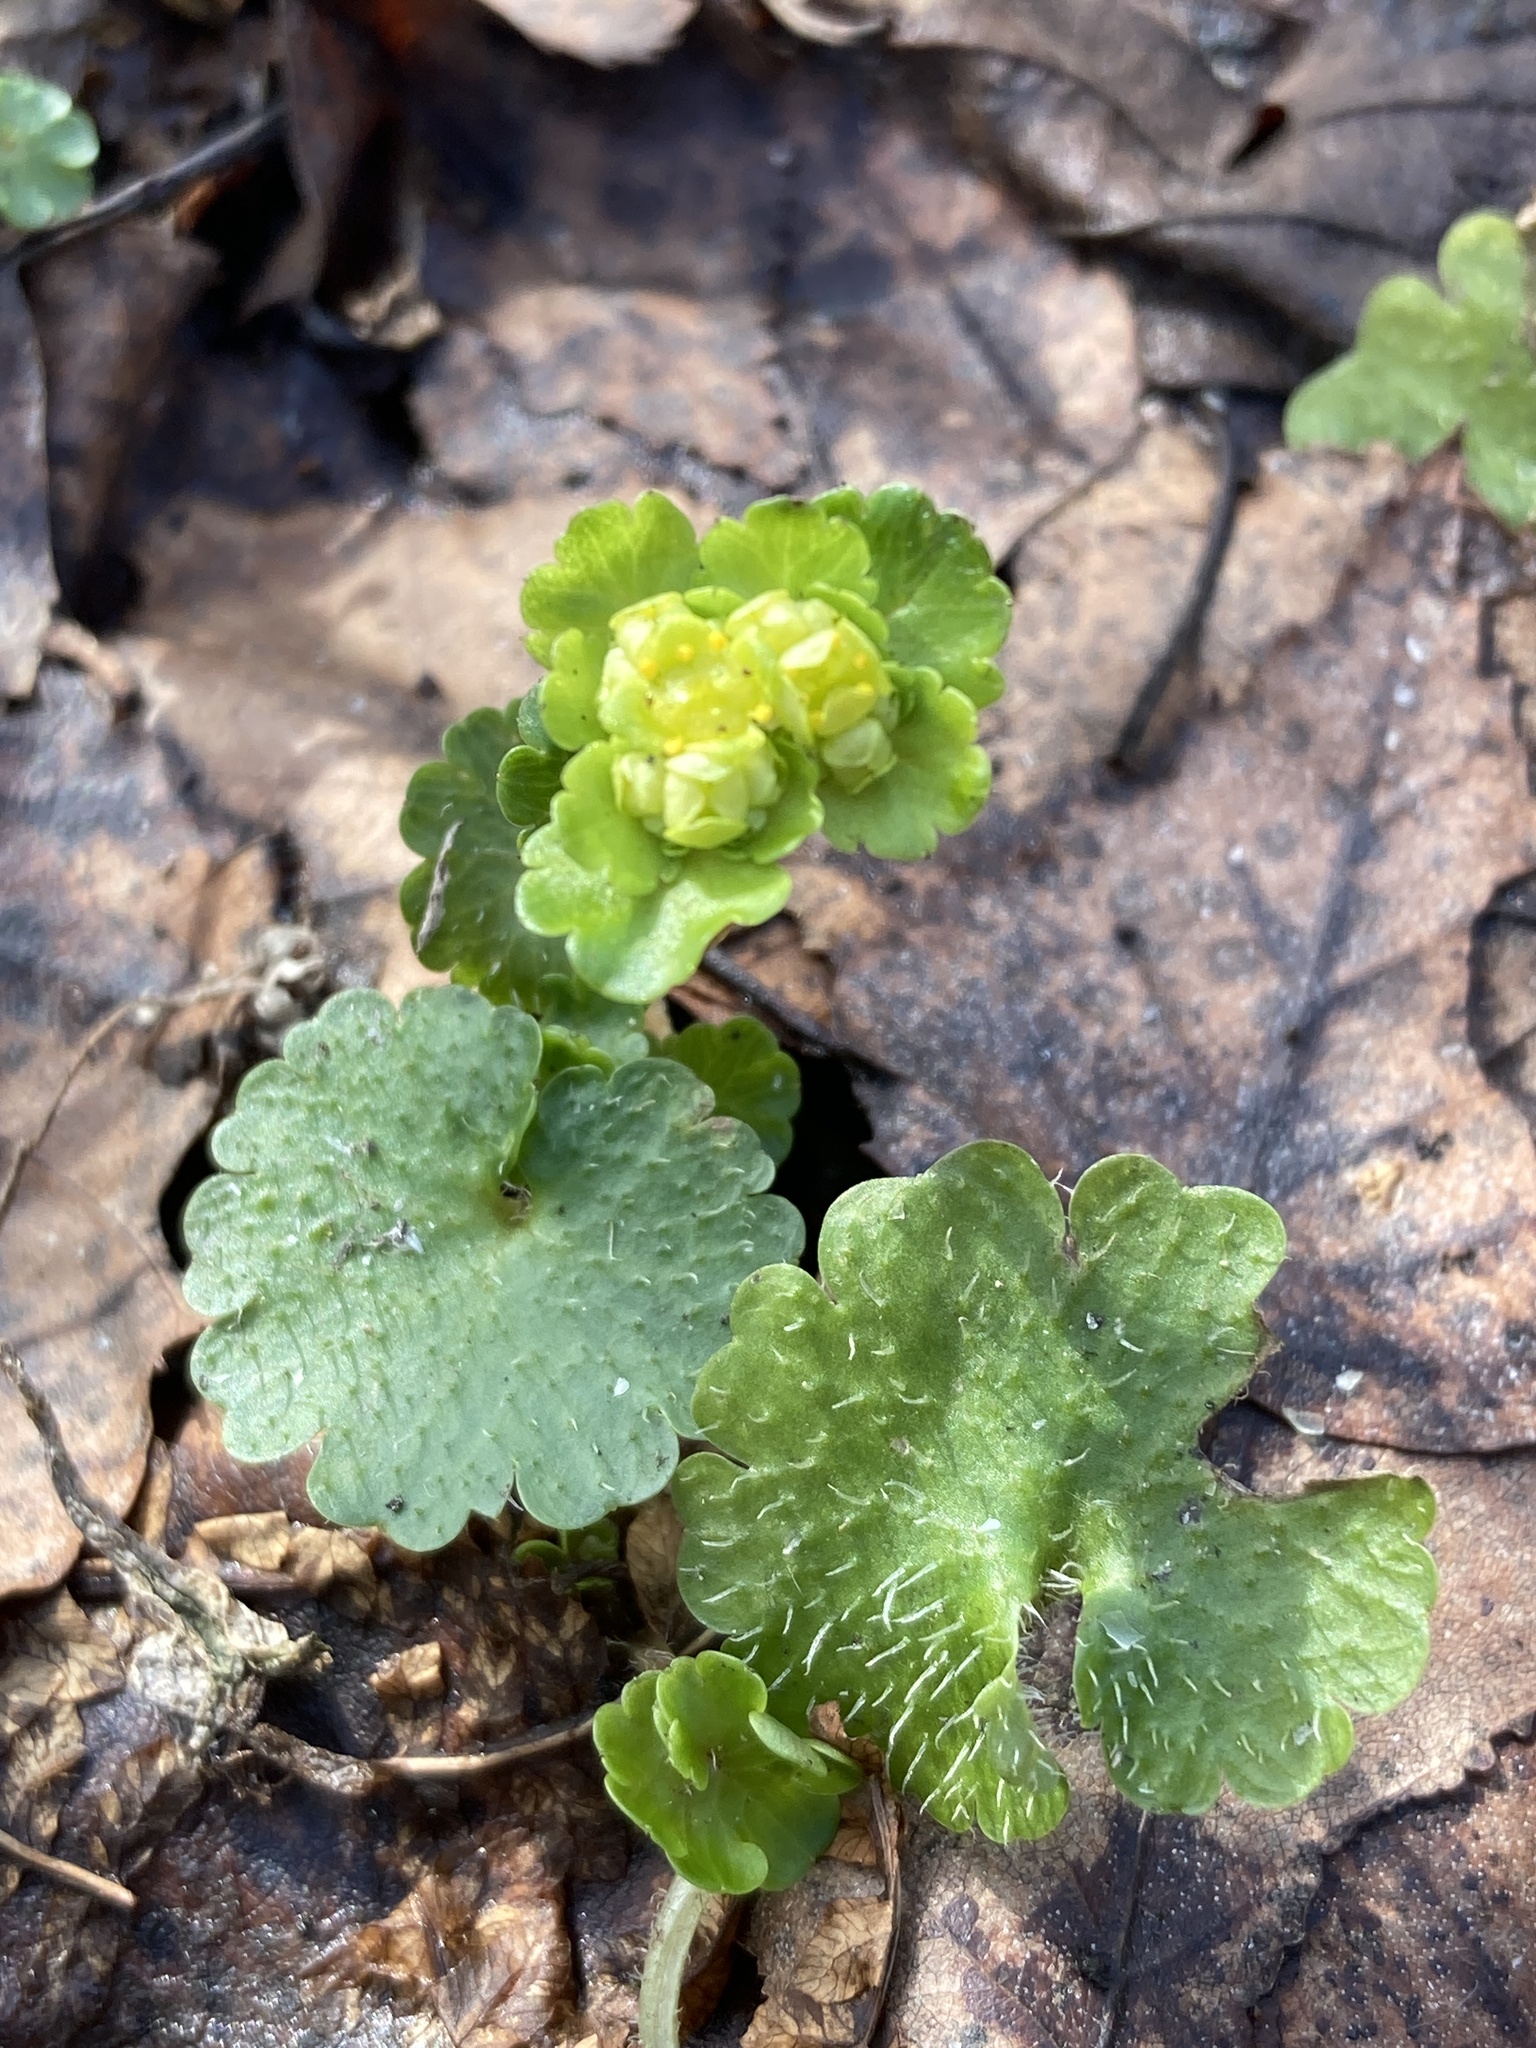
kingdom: Plantae
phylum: Tracheophyta
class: Magnoliopsida
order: Saxifragales
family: Saxifragaceae
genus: Chrysosplenium
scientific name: Chrysosplenium alternifolium
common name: Alternate-leaved golden-saxifrage
